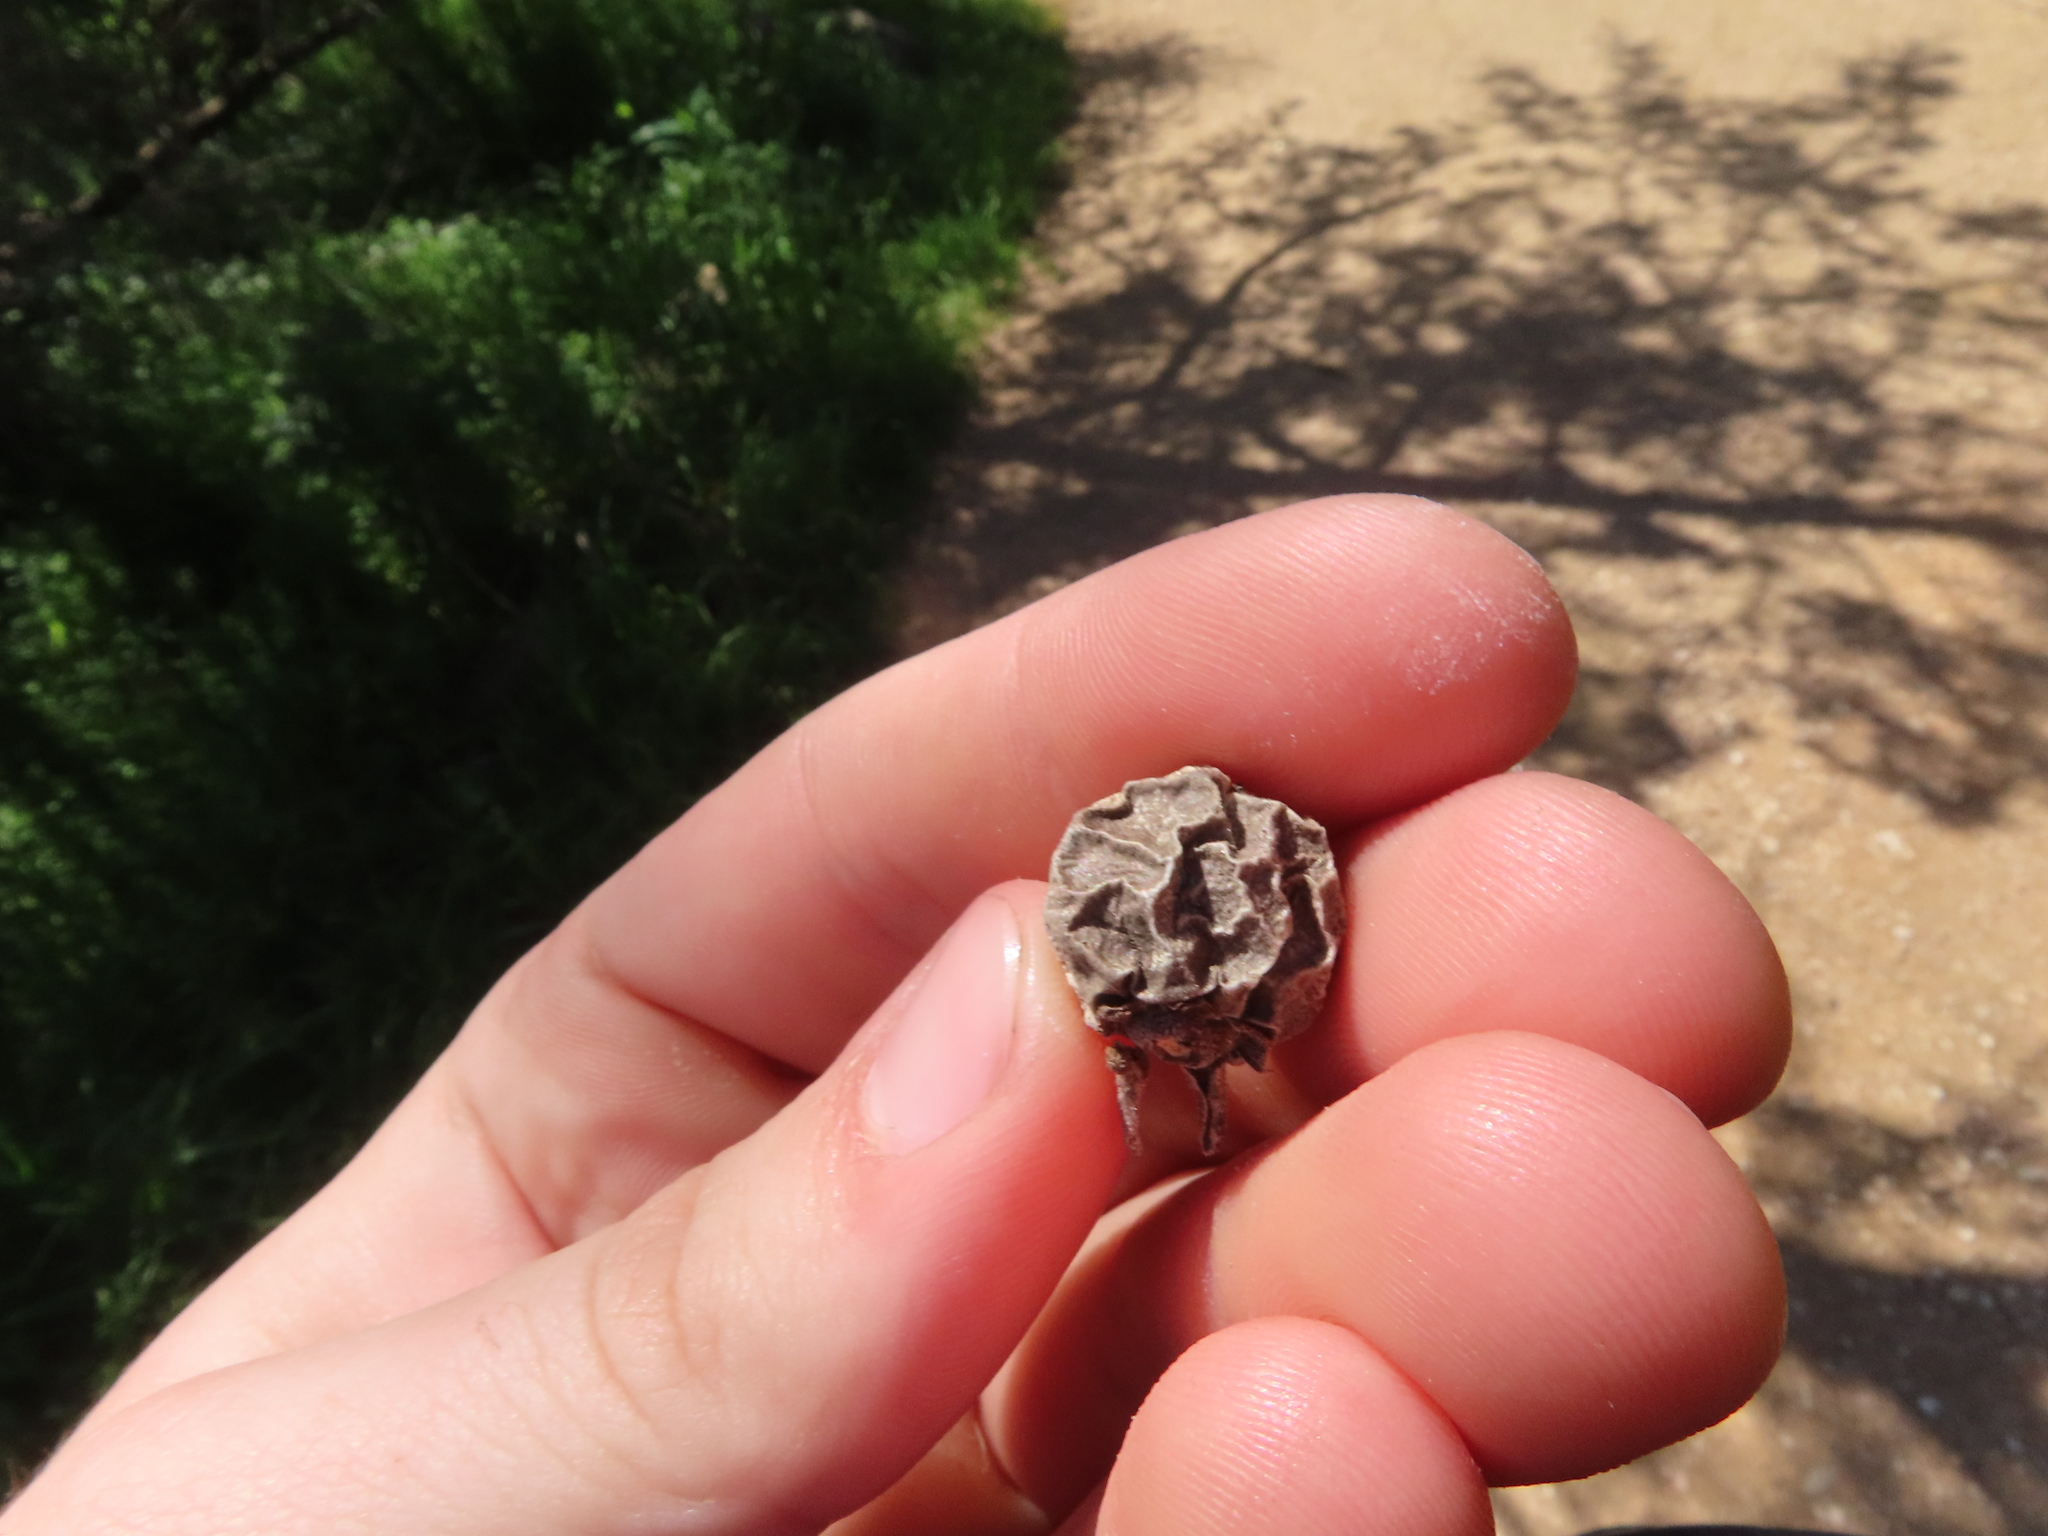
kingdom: Plantae
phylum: Tracheophyta
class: Magnoliopsida
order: Ericales
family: Ebenaceae
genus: Diospyros
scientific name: Diospyros texana
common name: Texas persimmon
